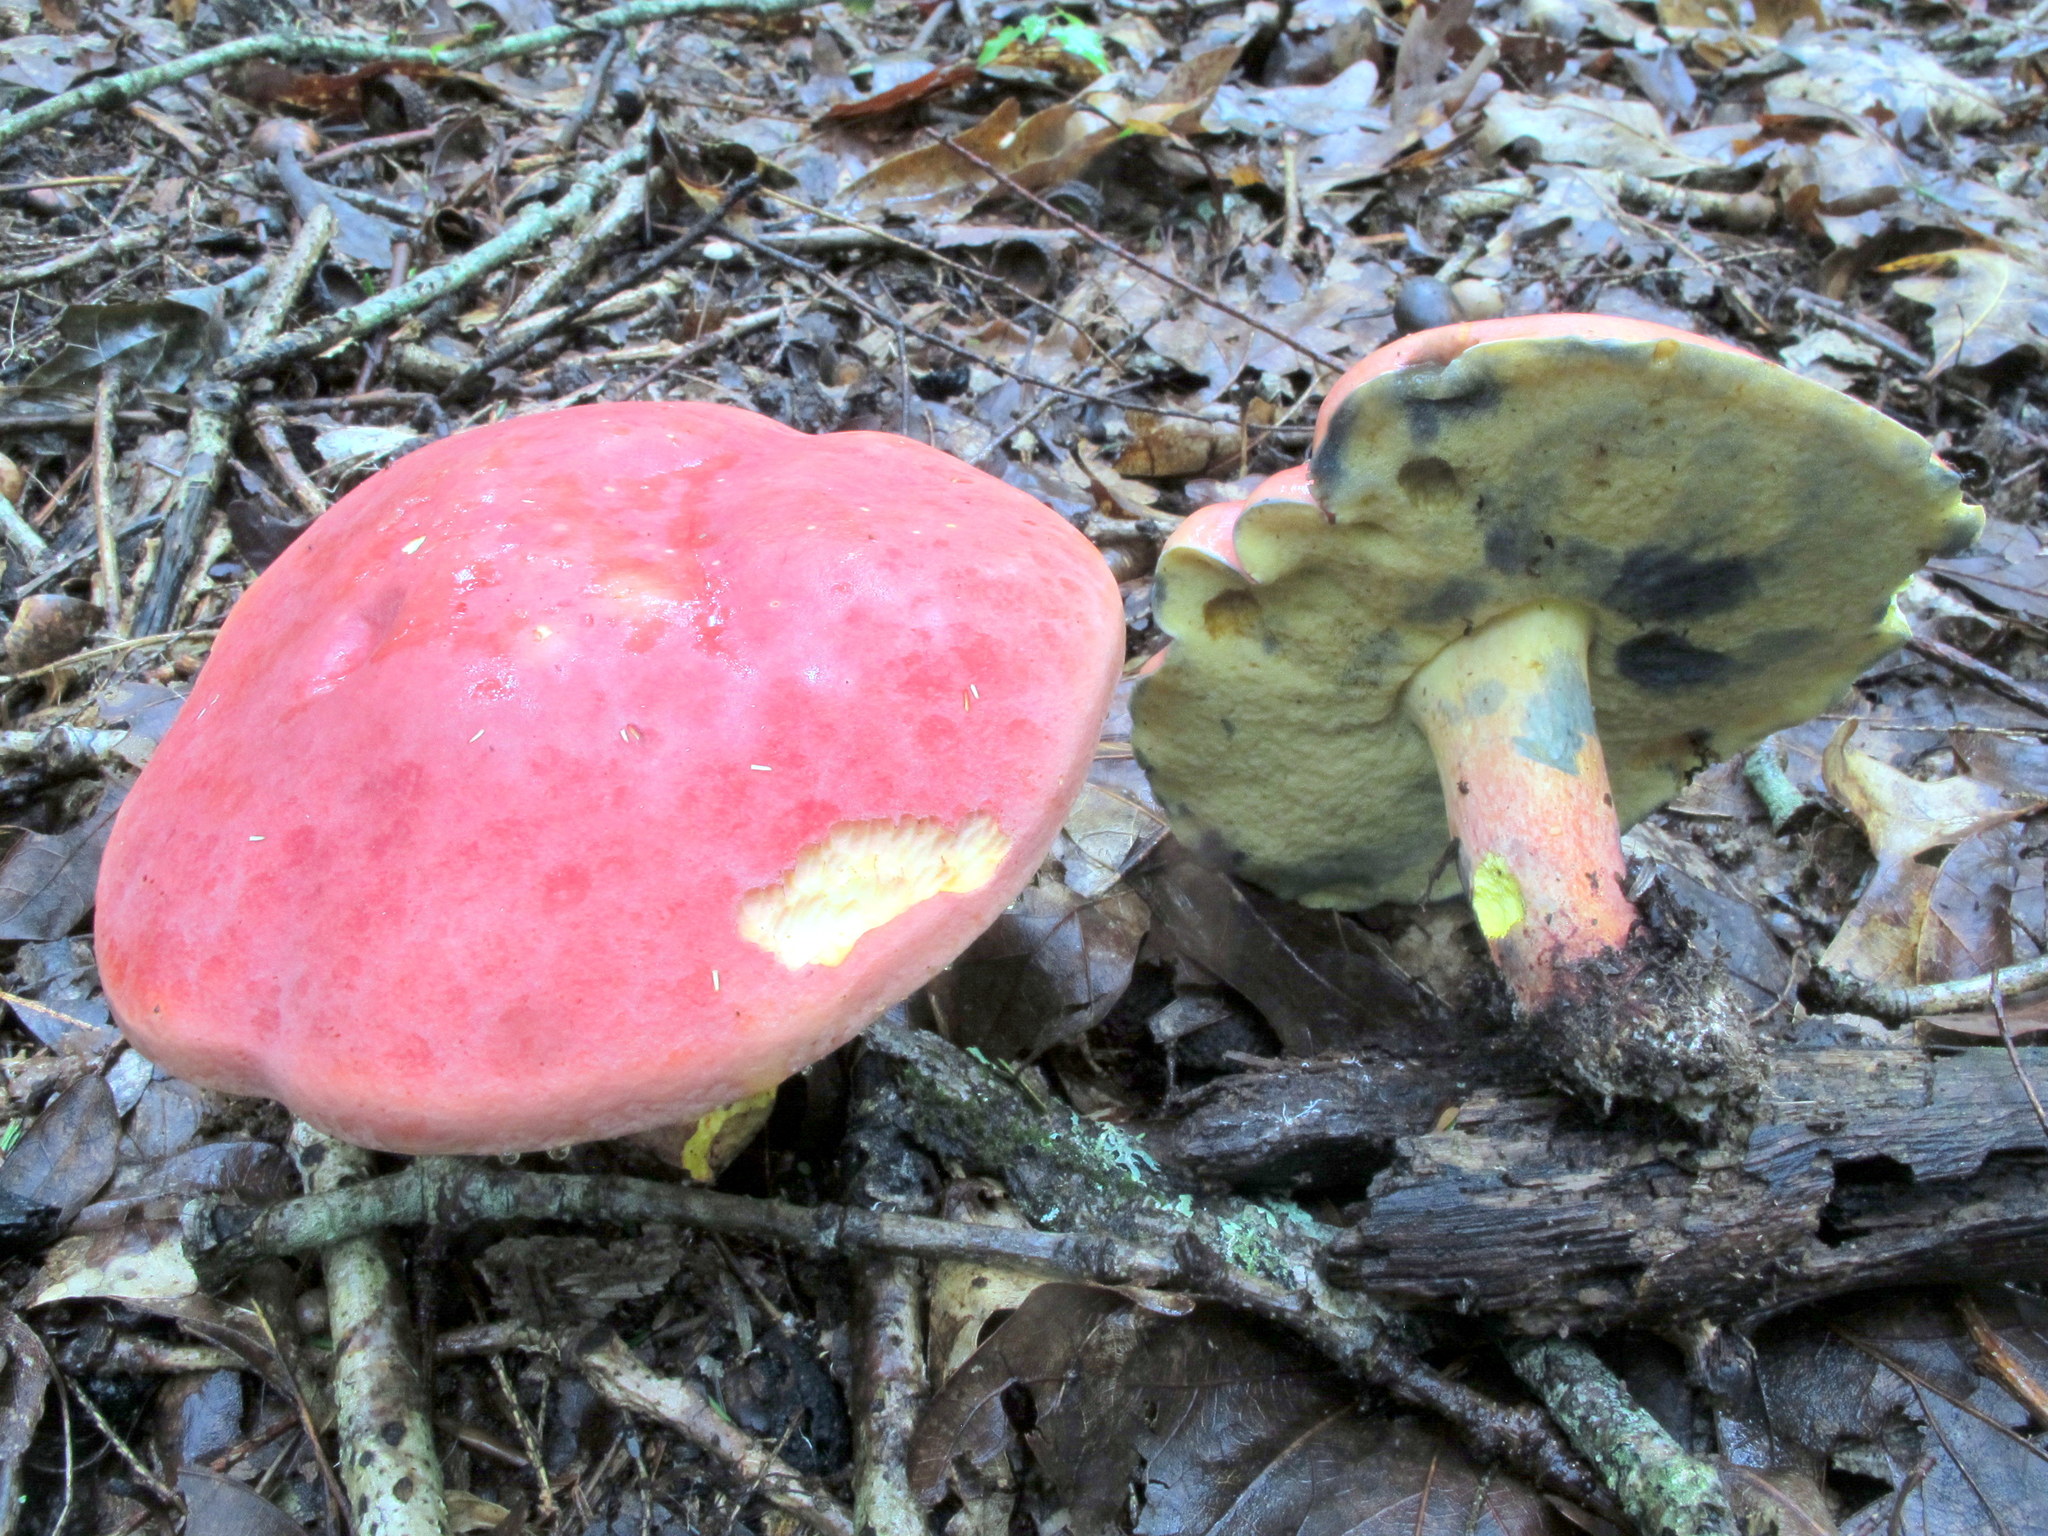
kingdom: Fungi
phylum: Basidiomycota
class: Agaricomycetes
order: Boletales
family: Boletaceae
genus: Baorangia
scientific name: Baorangia bicolor
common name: Two-colored bolete
